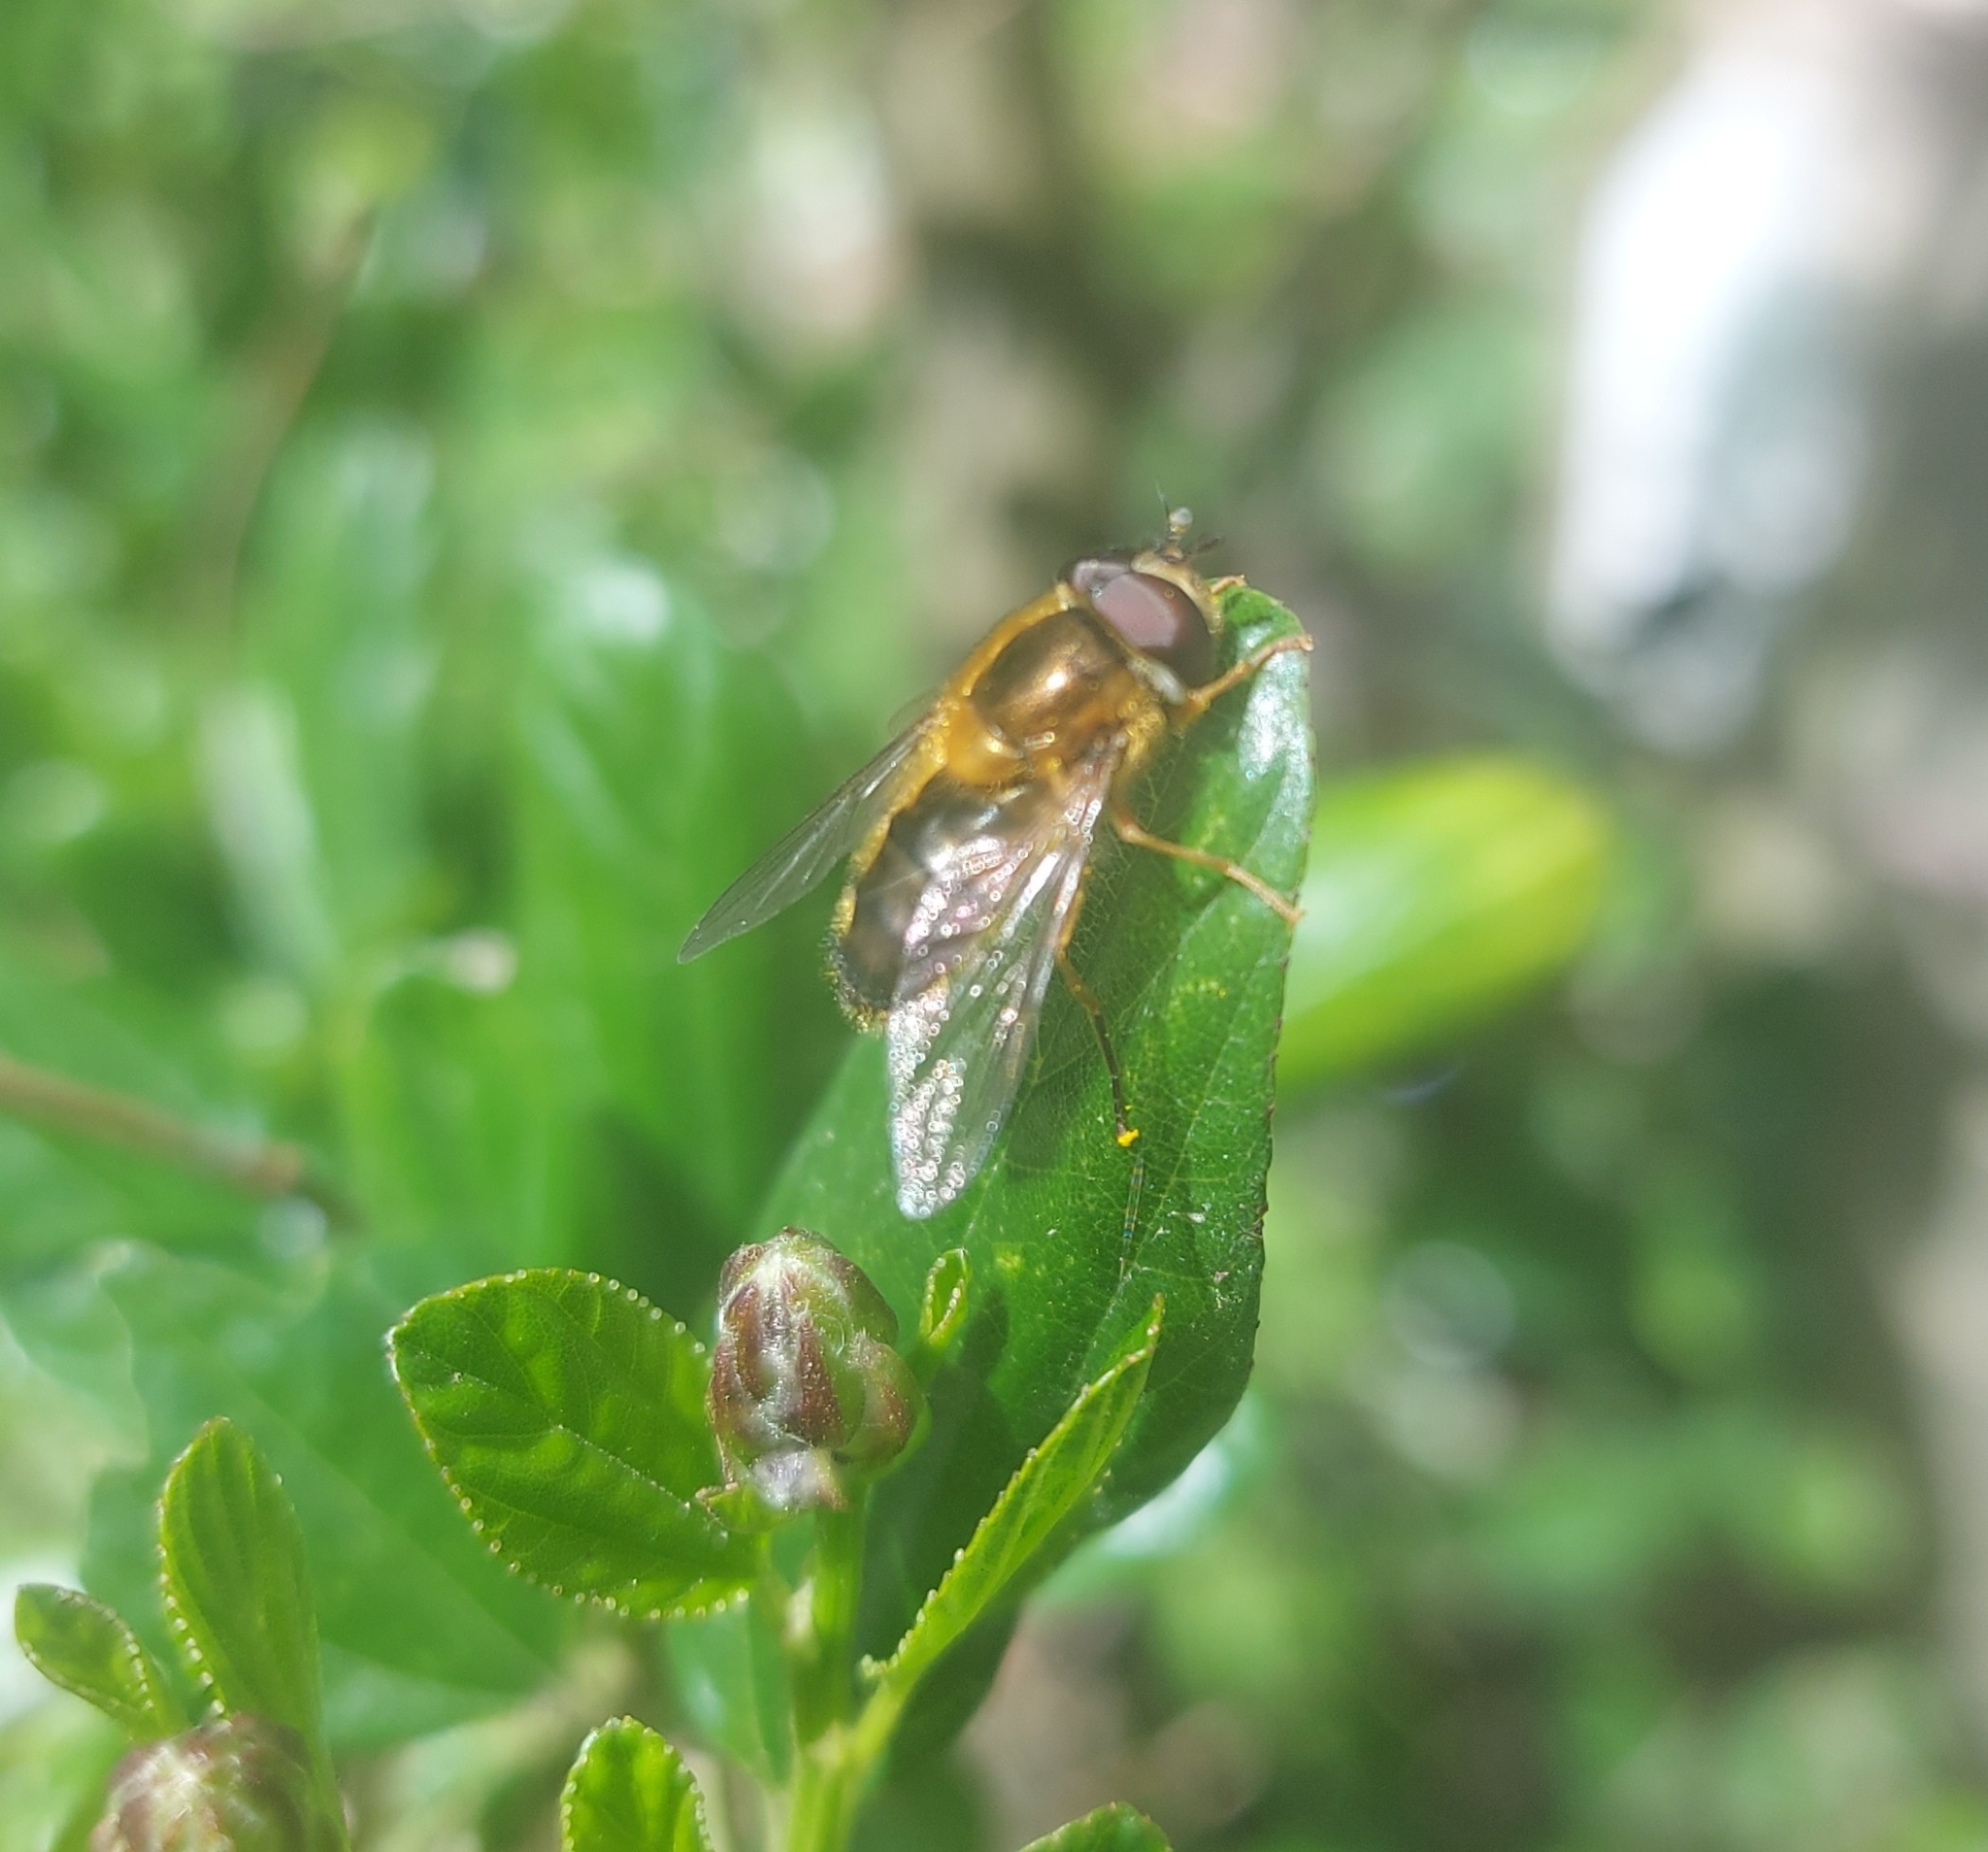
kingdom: Animalia
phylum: Arthropoda
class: Insecta
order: Diptera
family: Syrphidae
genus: Epistrophe
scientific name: Epistrophe eligans
